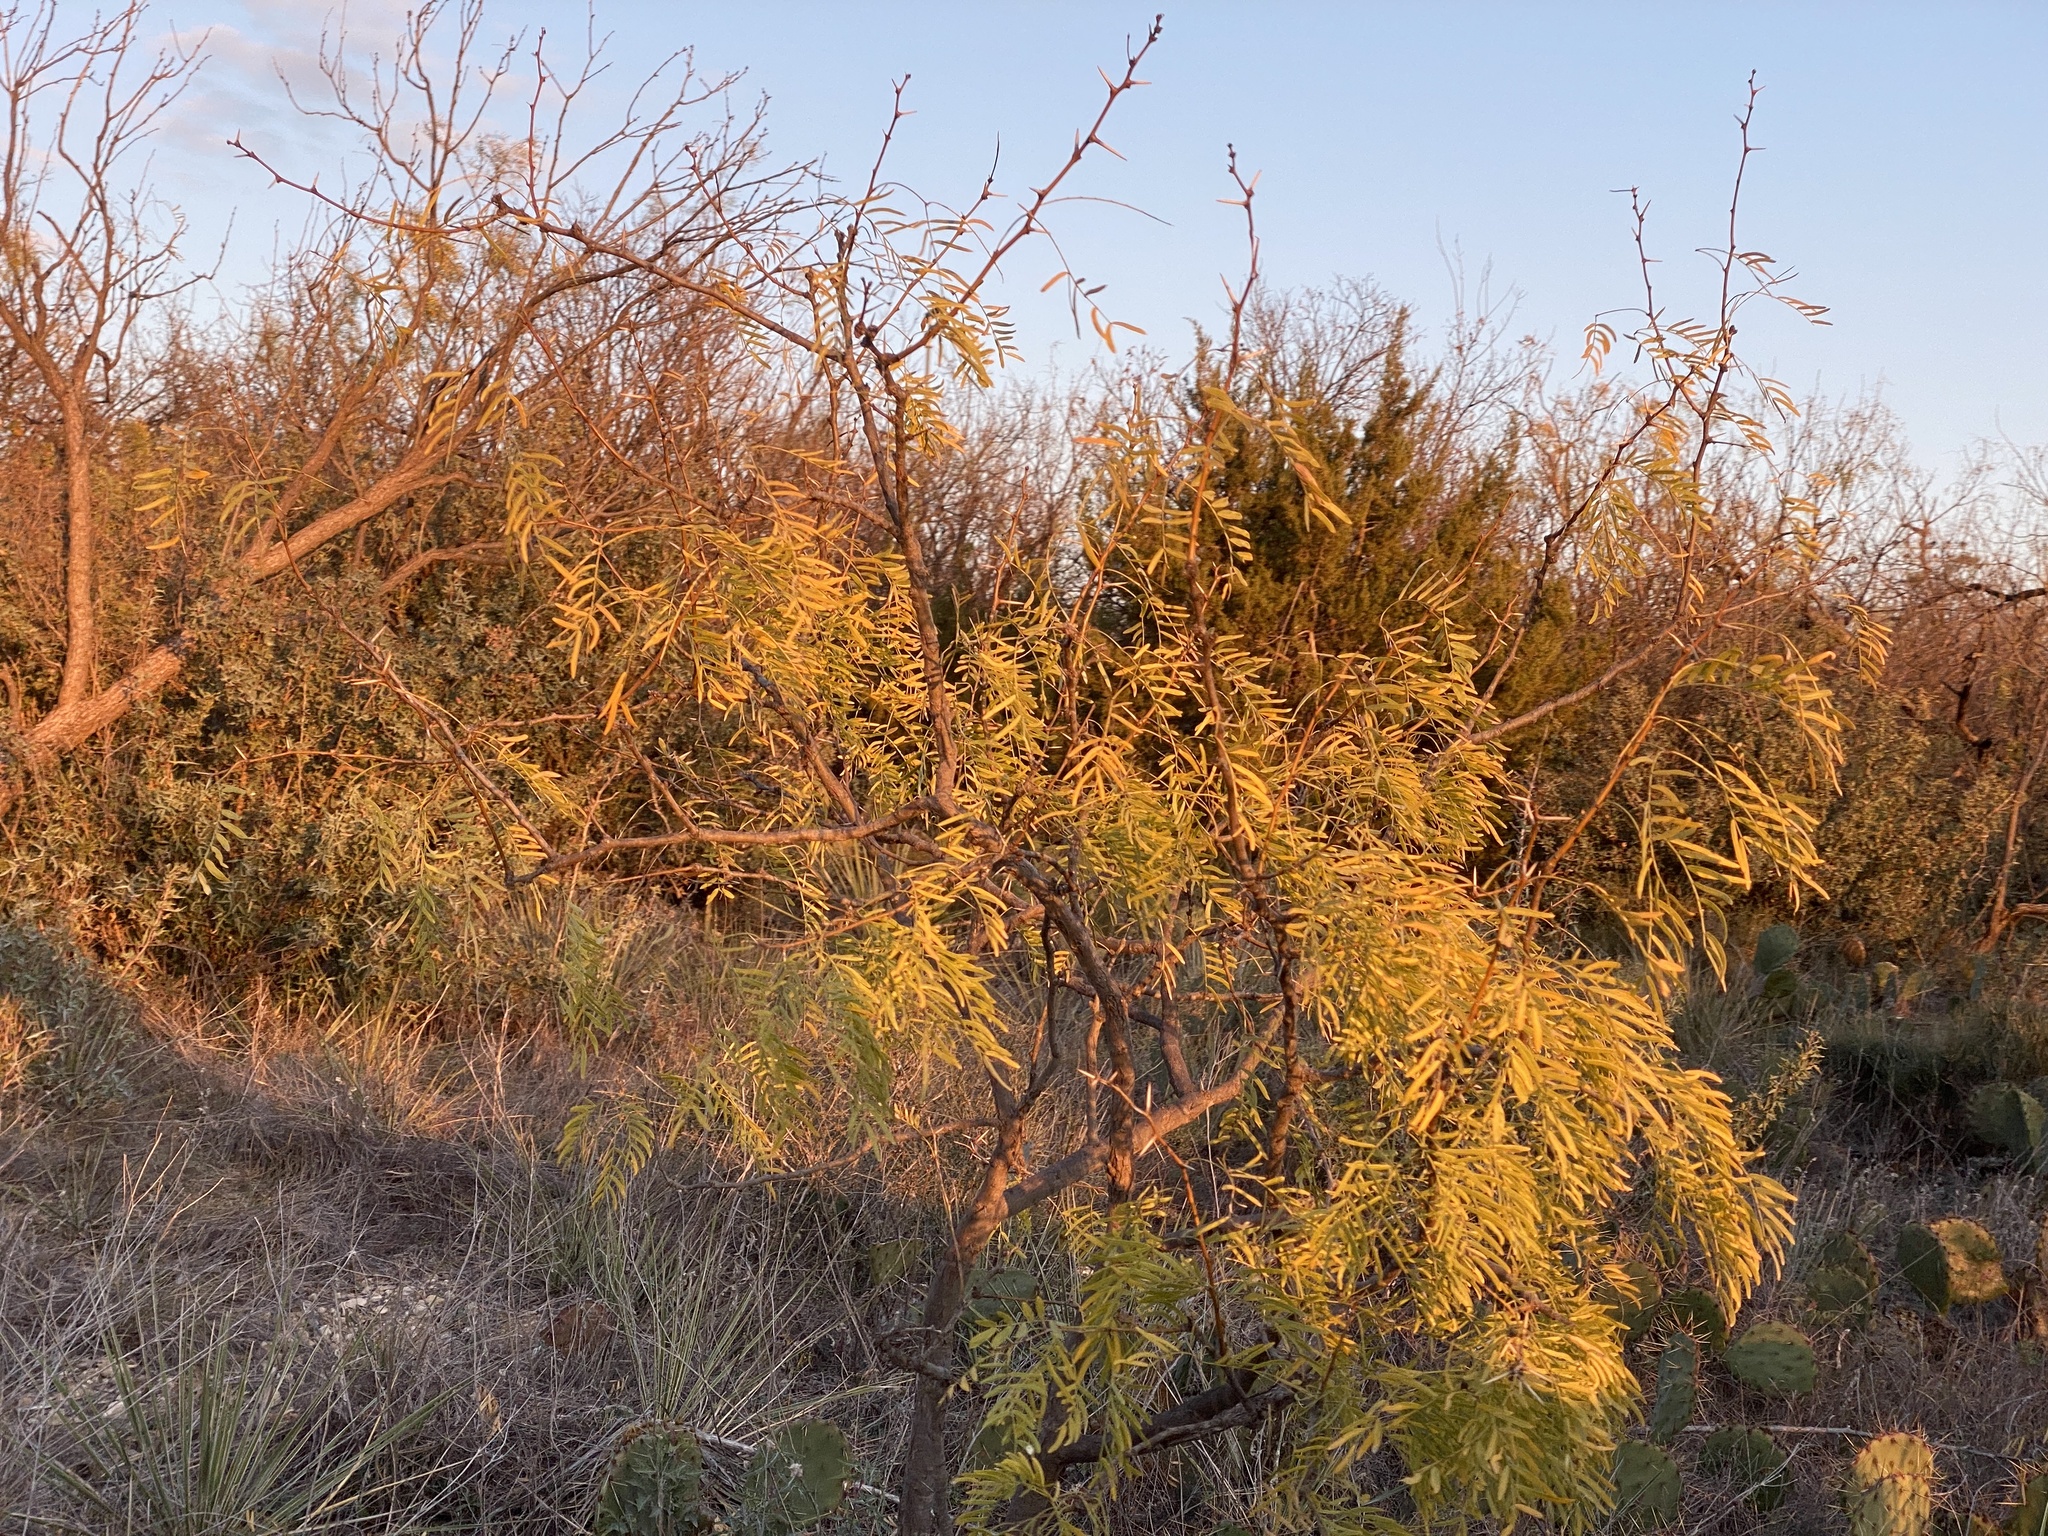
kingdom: Plantae
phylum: Tracheophyta
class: Magnoliopsida
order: Fabales
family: Fabaceae
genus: Prosopis
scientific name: Prosopis glandulosa
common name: Honey mesquite
